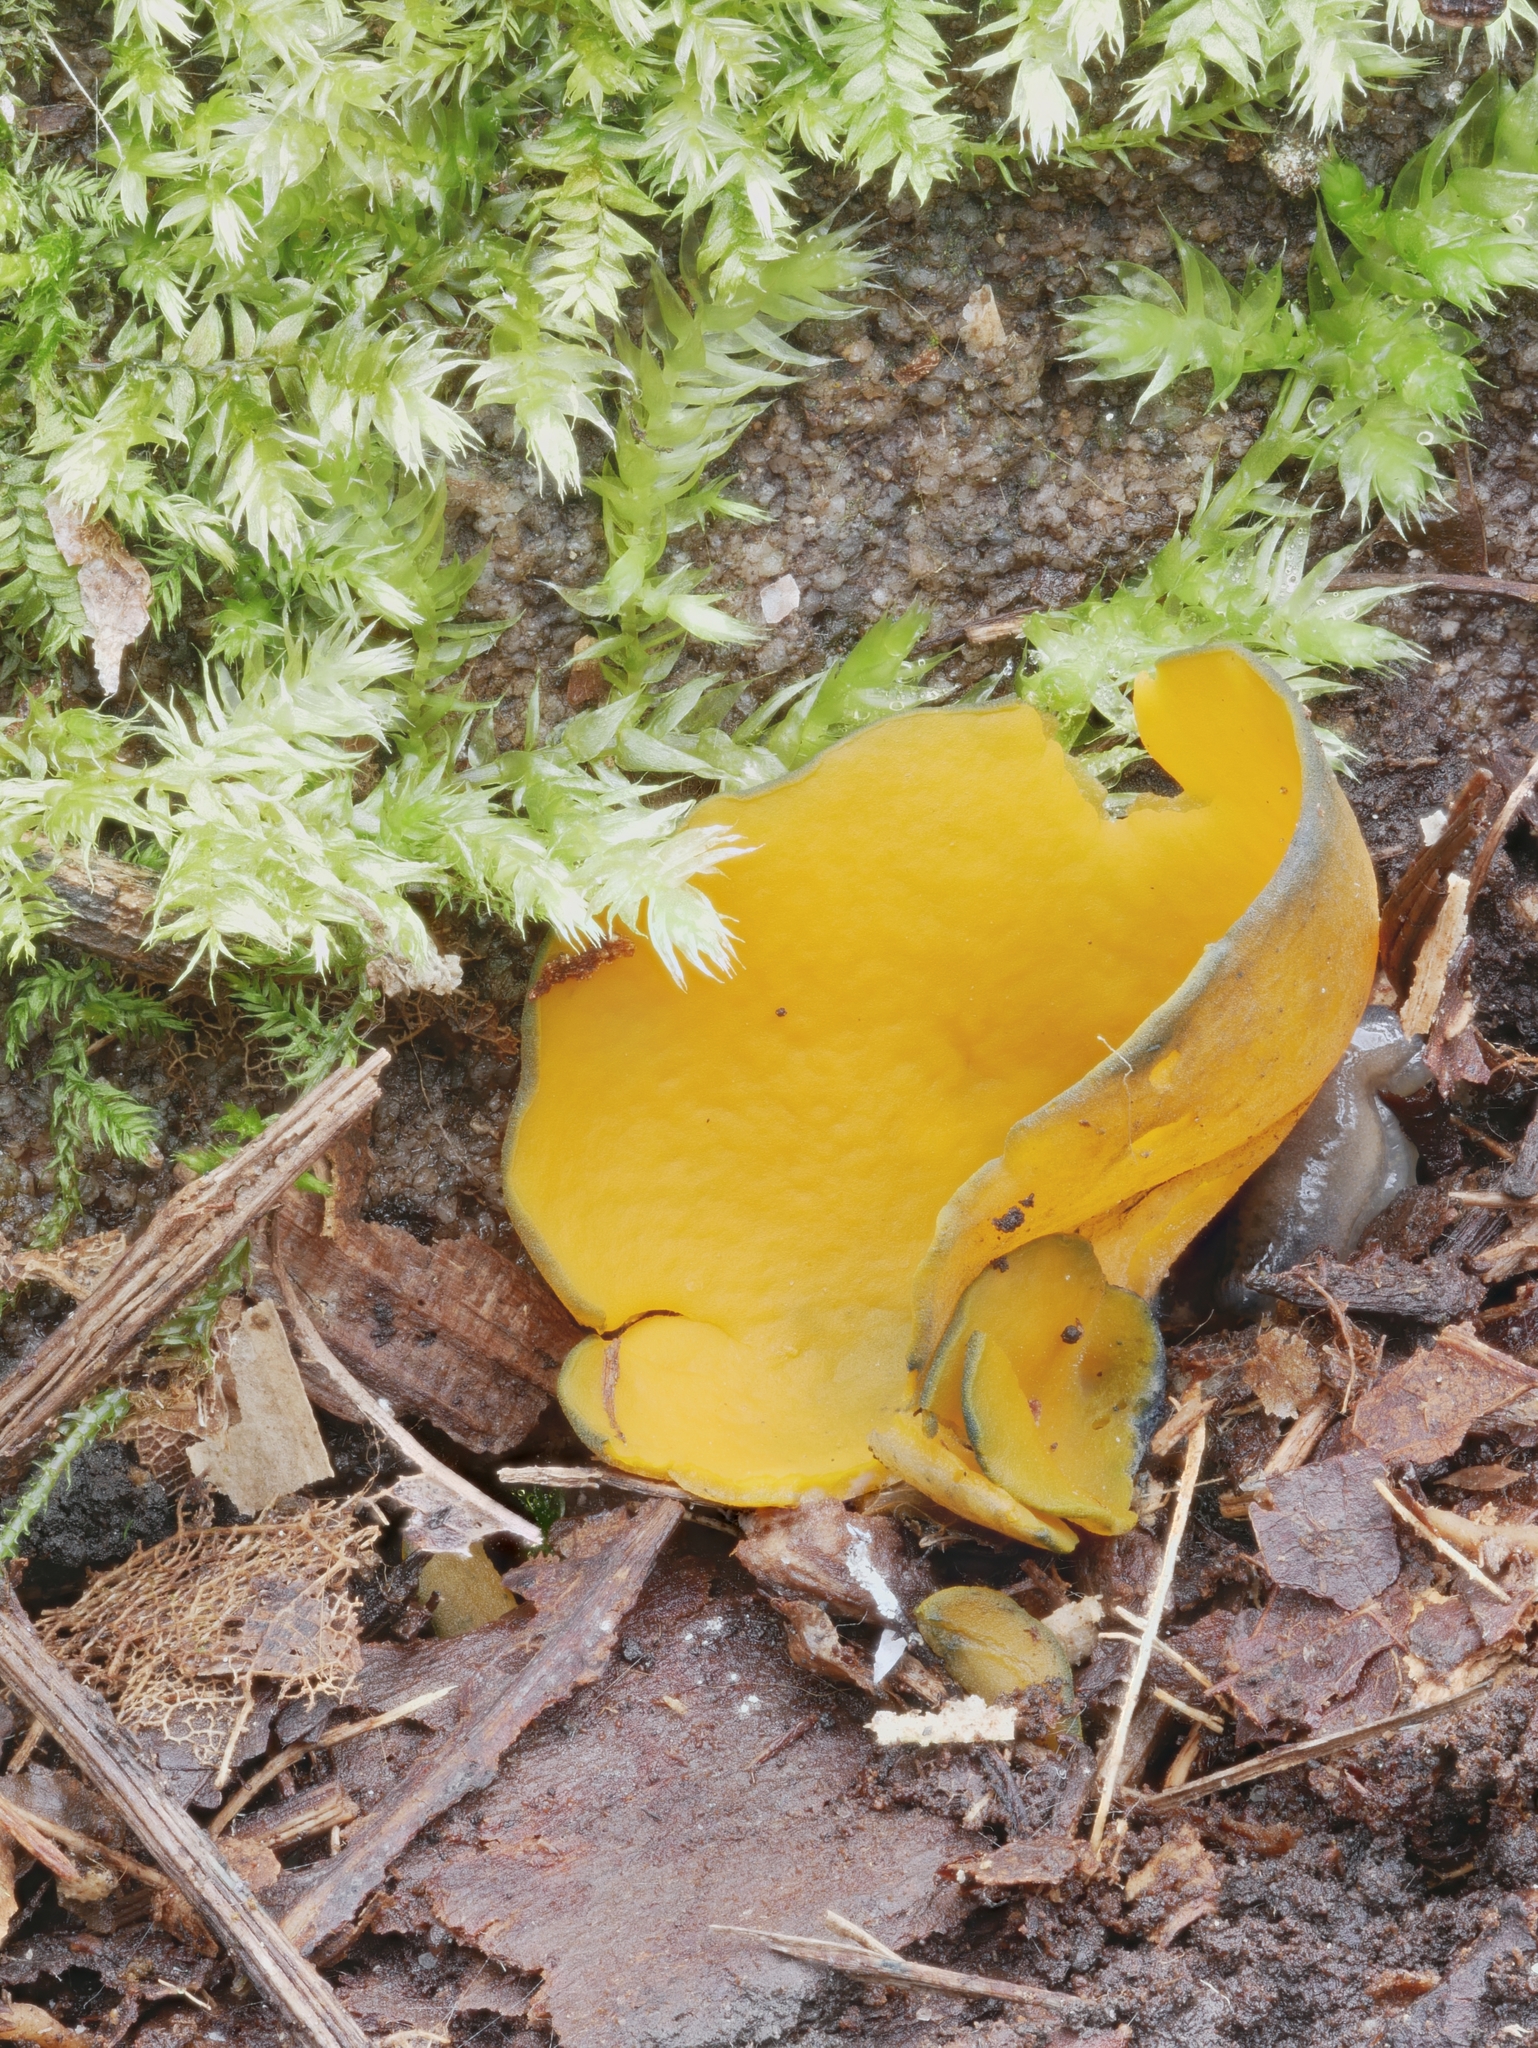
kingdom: Fungi
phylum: Ascomycota
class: Pezizomycetes
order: Pezizales
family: Caloscyphaceae
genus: Caloscypha
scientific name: Caloscypha fulgens
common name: Golden cup
